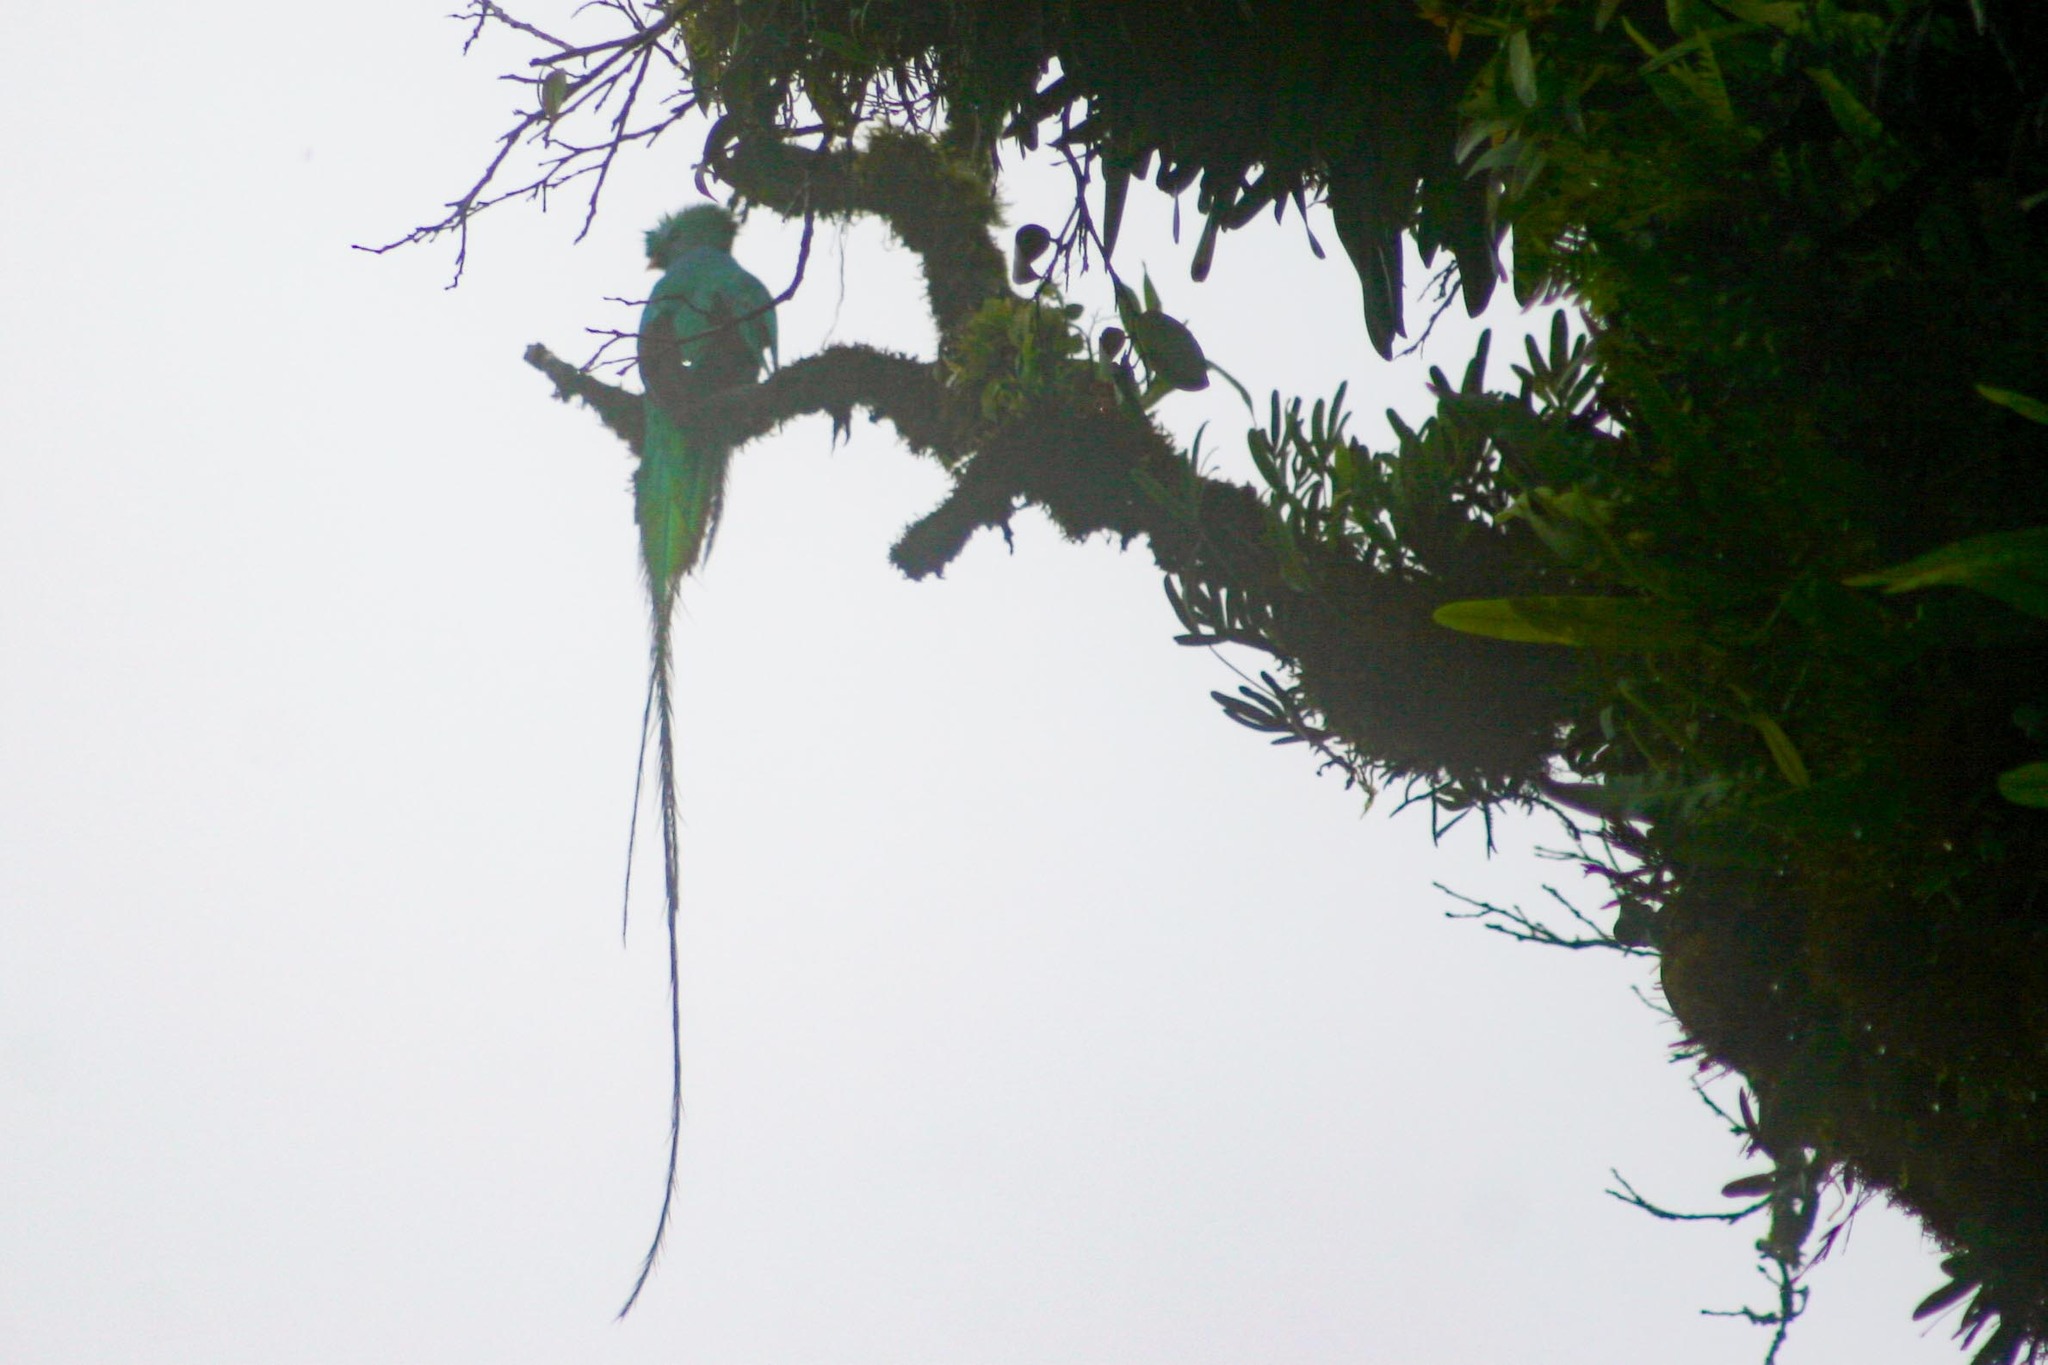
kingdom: Animalia
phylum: Chordata
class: Aves
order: Trogoniformes
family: Trogonidae
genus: Pharomachrus
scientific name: Pharomachrus mocinno
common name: Resplendent quetzal
